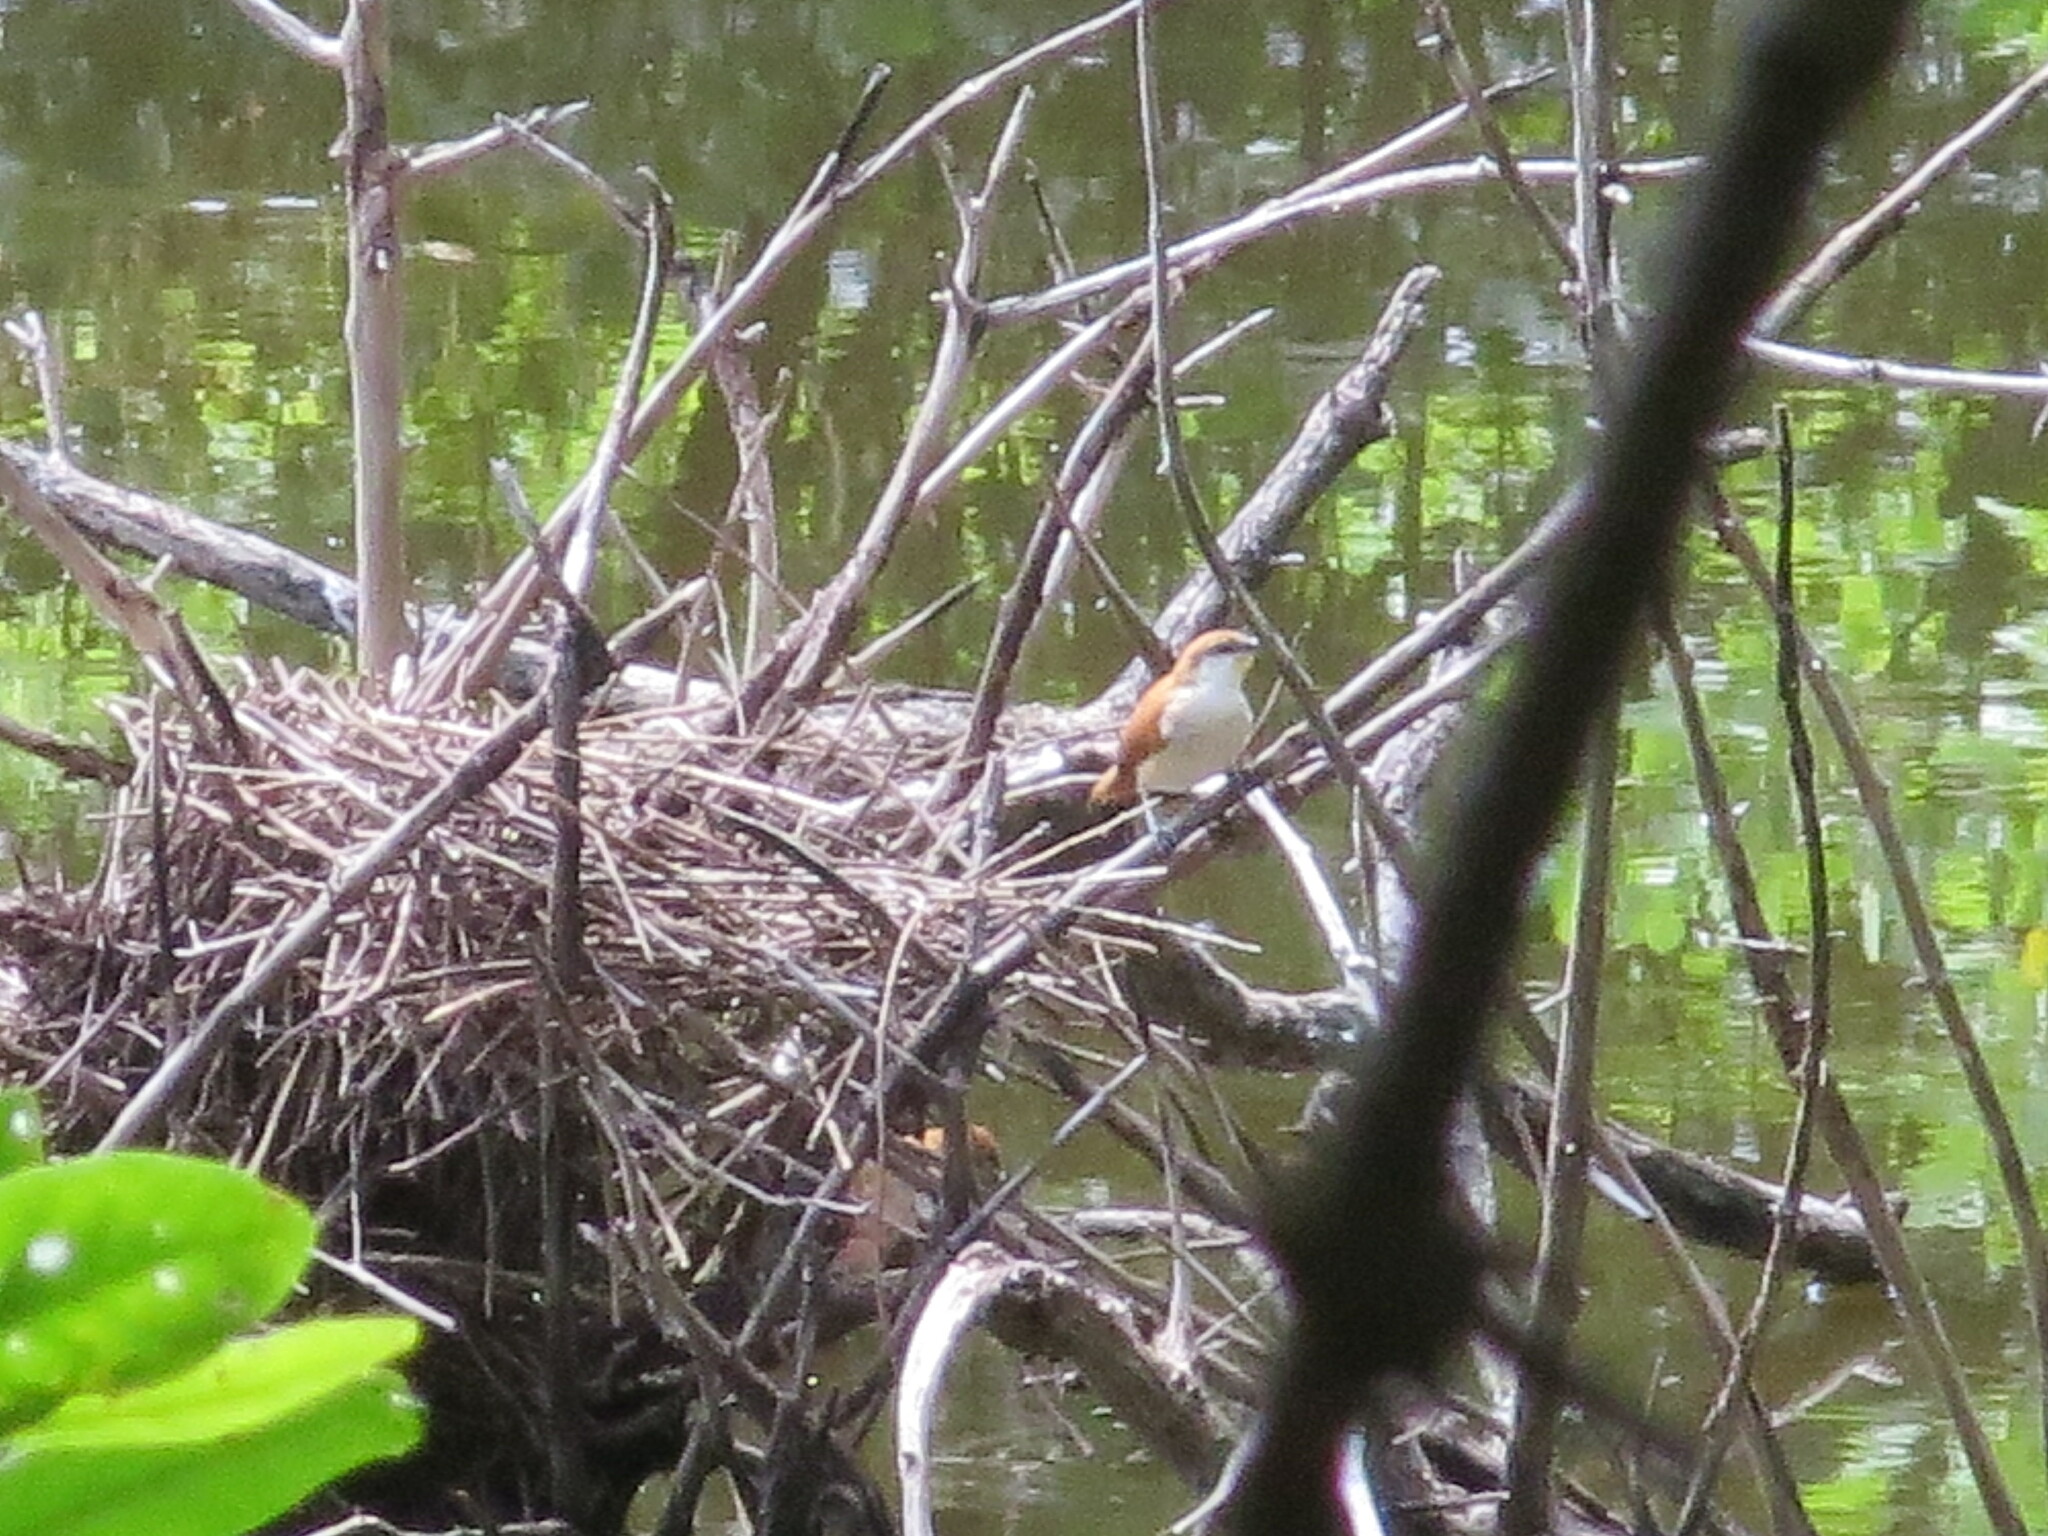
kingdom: Animalia
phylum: Chordata
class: Aves
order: Passeriformes
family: Furnariidae
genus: Certhiaxis
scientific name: Certhiaxis cinnamomeus
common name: Yellow-chinned spinetail
